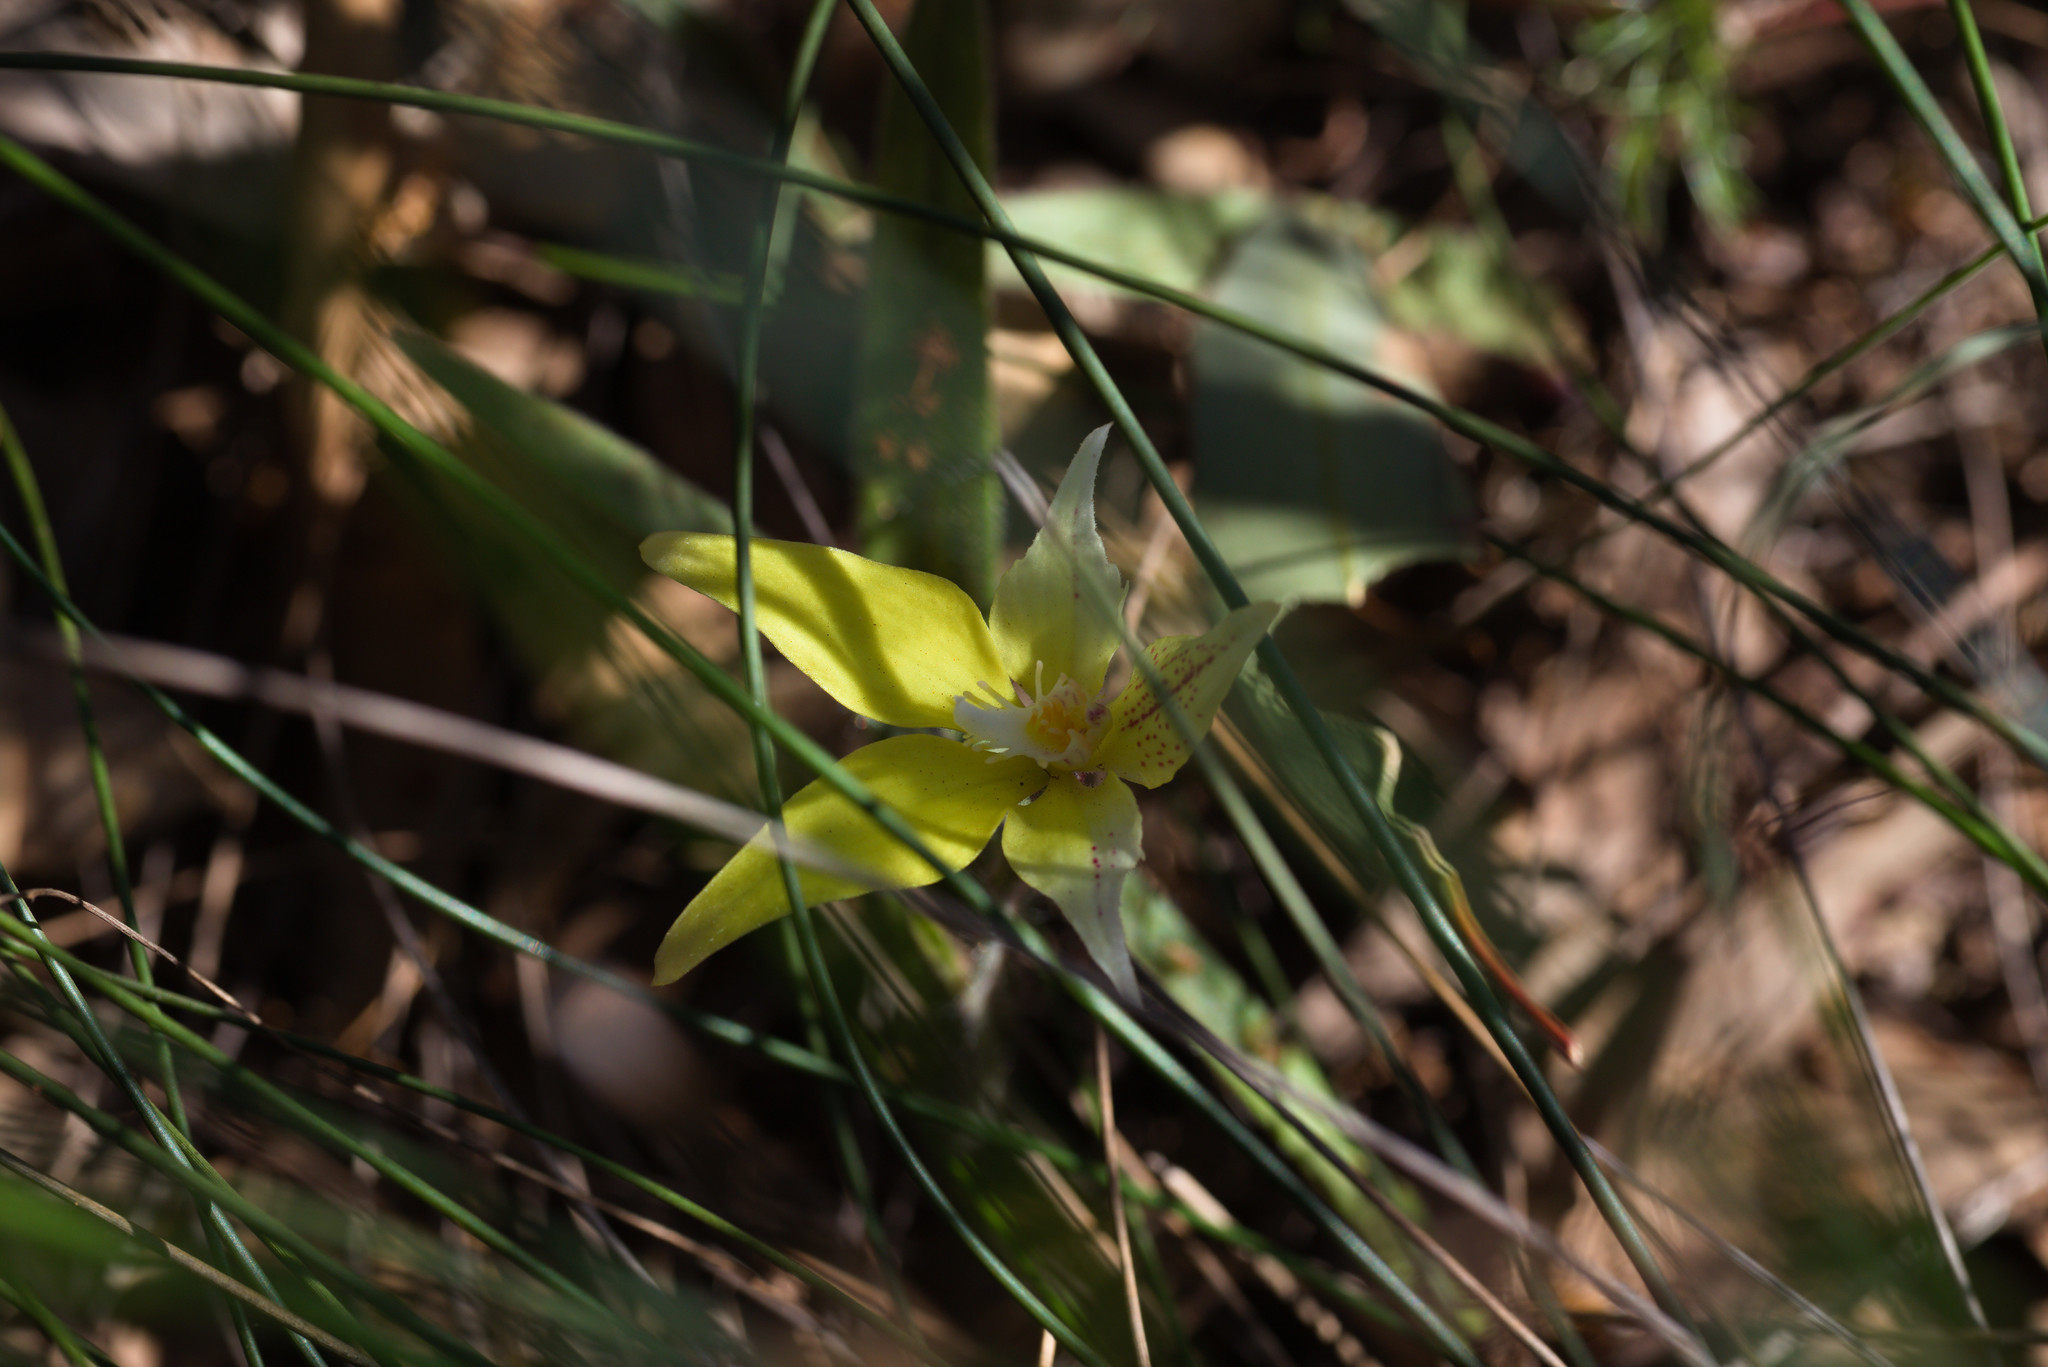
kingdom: Plantae
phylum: Tracheophyta
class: Liliopsida
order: Asparagales
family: Orchidaceae
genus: Caladenia
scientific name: Caladenia flava
